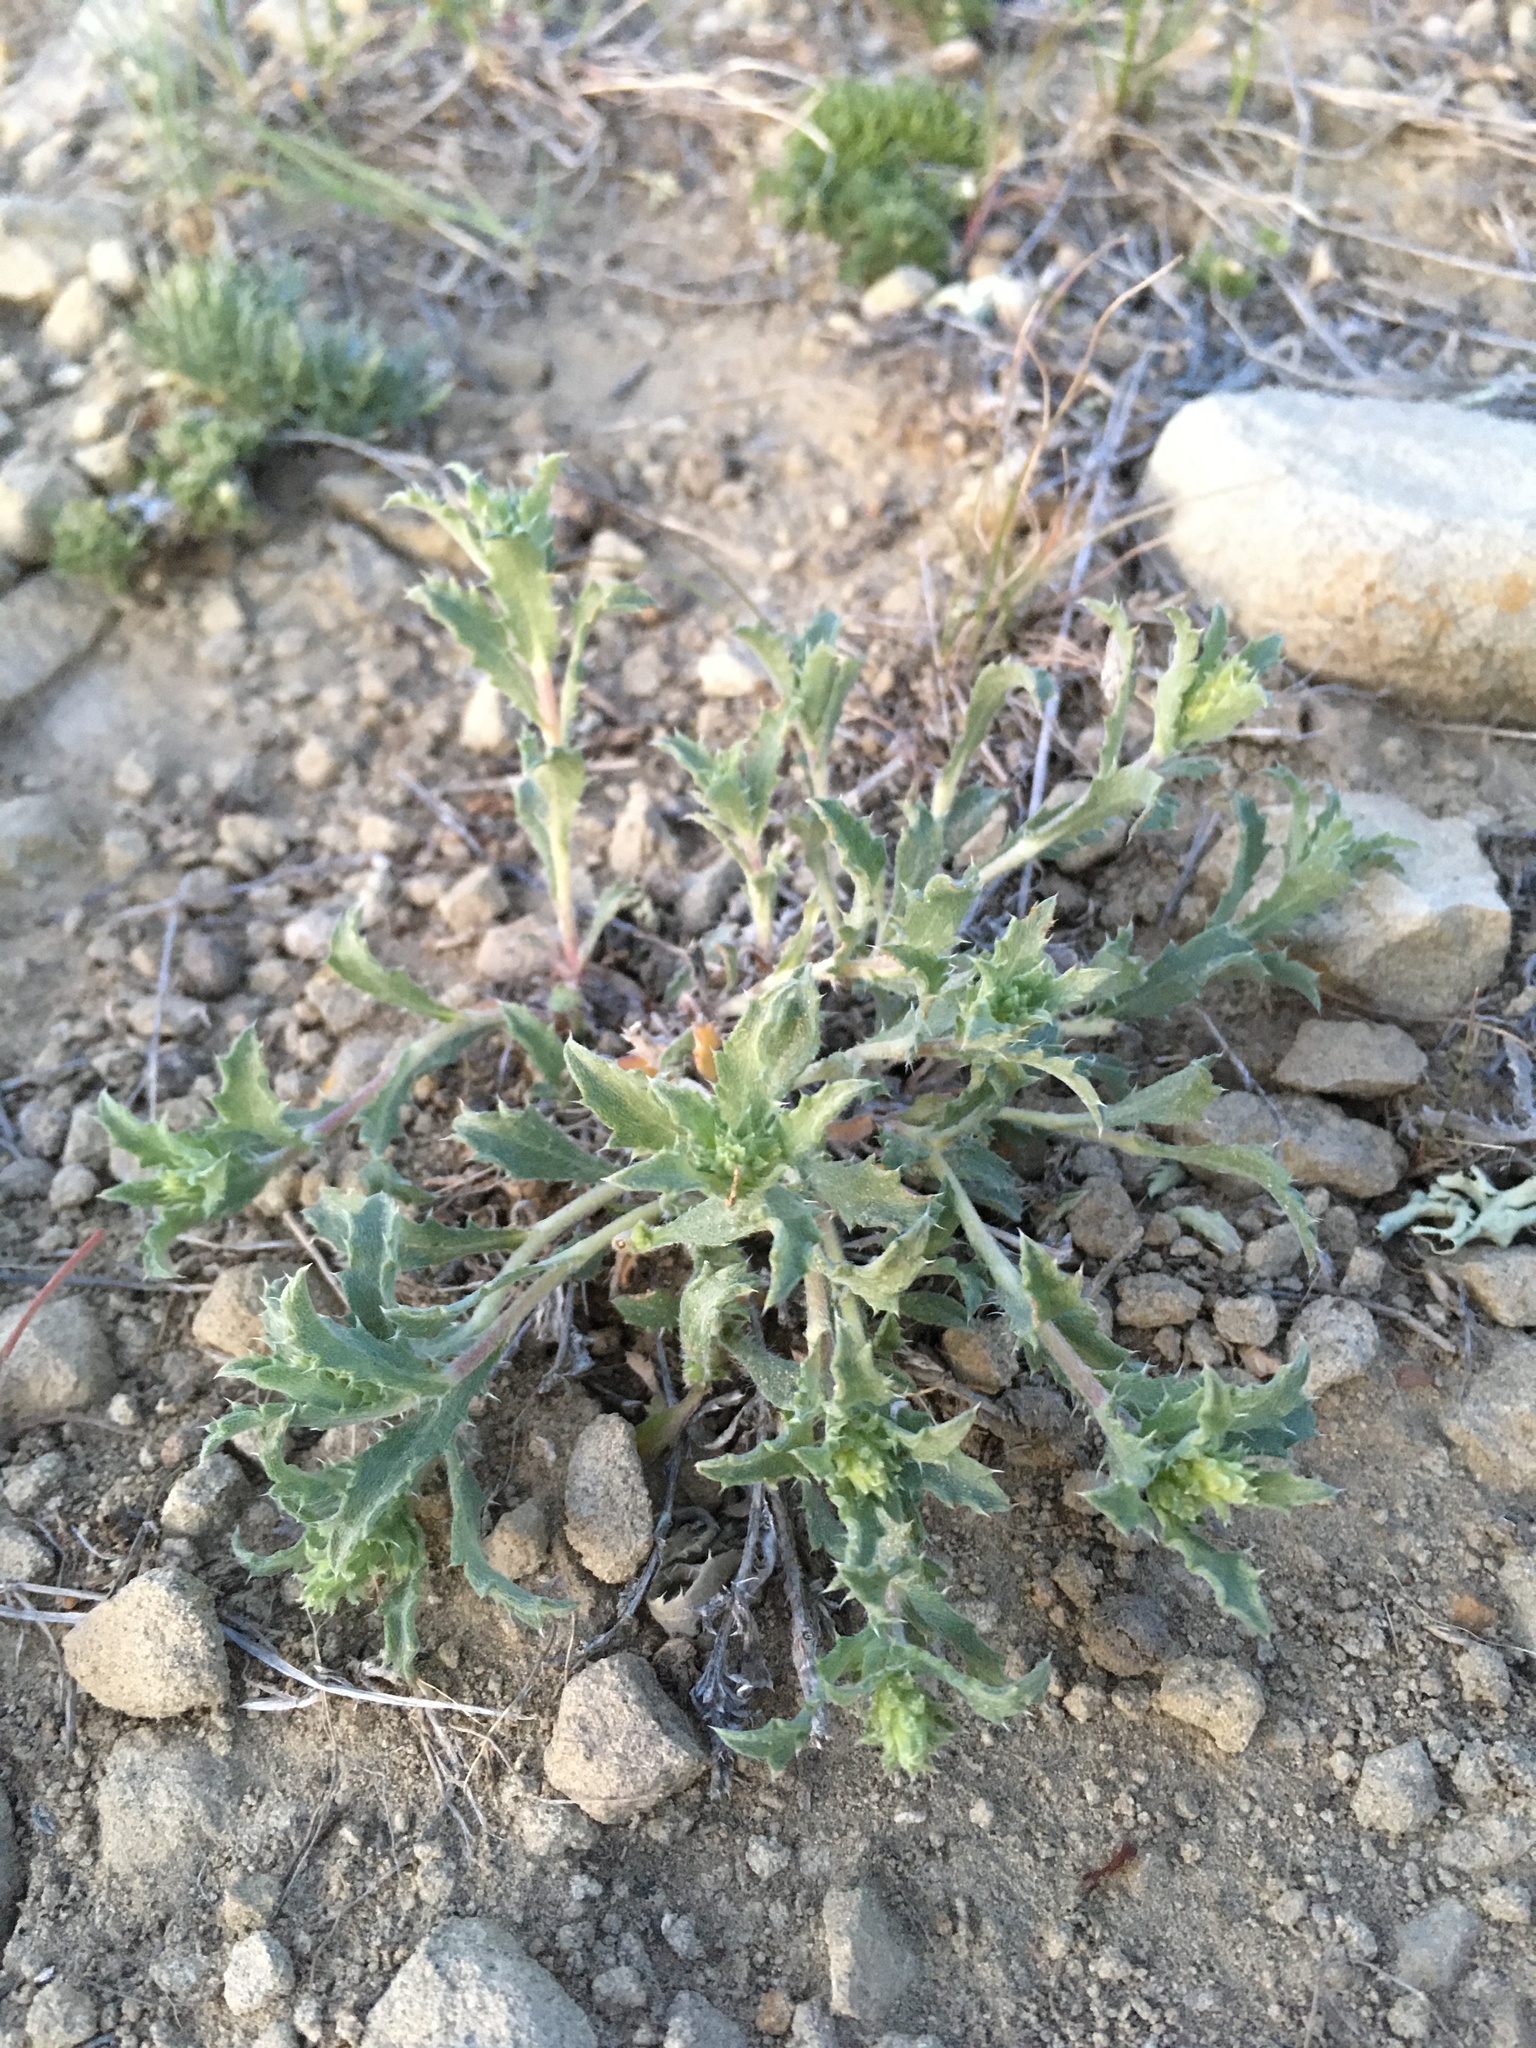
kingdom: Plantae
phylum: Tracheophyta
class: Magnoliopsida
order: Asterales
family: Asteraceae
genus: Xanthisma
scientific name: Xanthisma grindelioides
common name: Goldenweed
